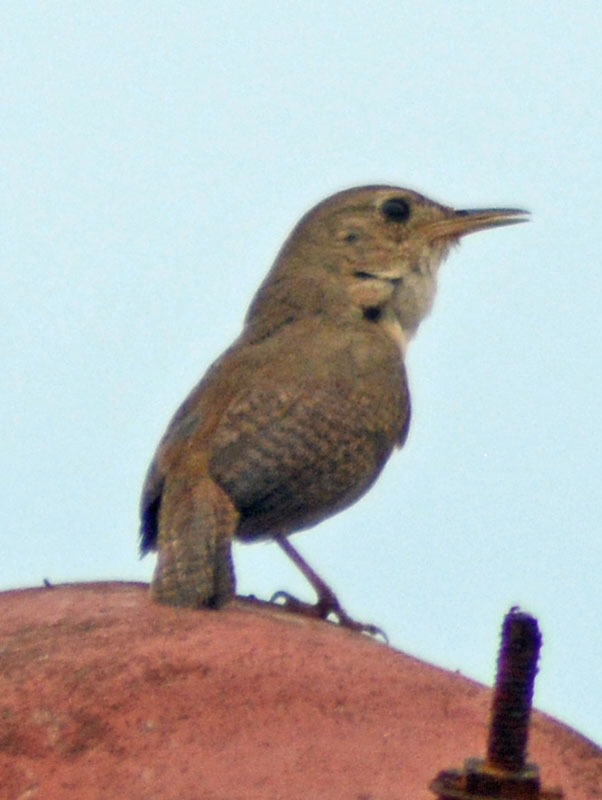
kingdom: Animalia
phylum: Chordata
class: Aves
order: Passeriformes
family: Troglodytidae
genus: Troglodytes
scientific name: Troglodytes aedon
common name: House wren
